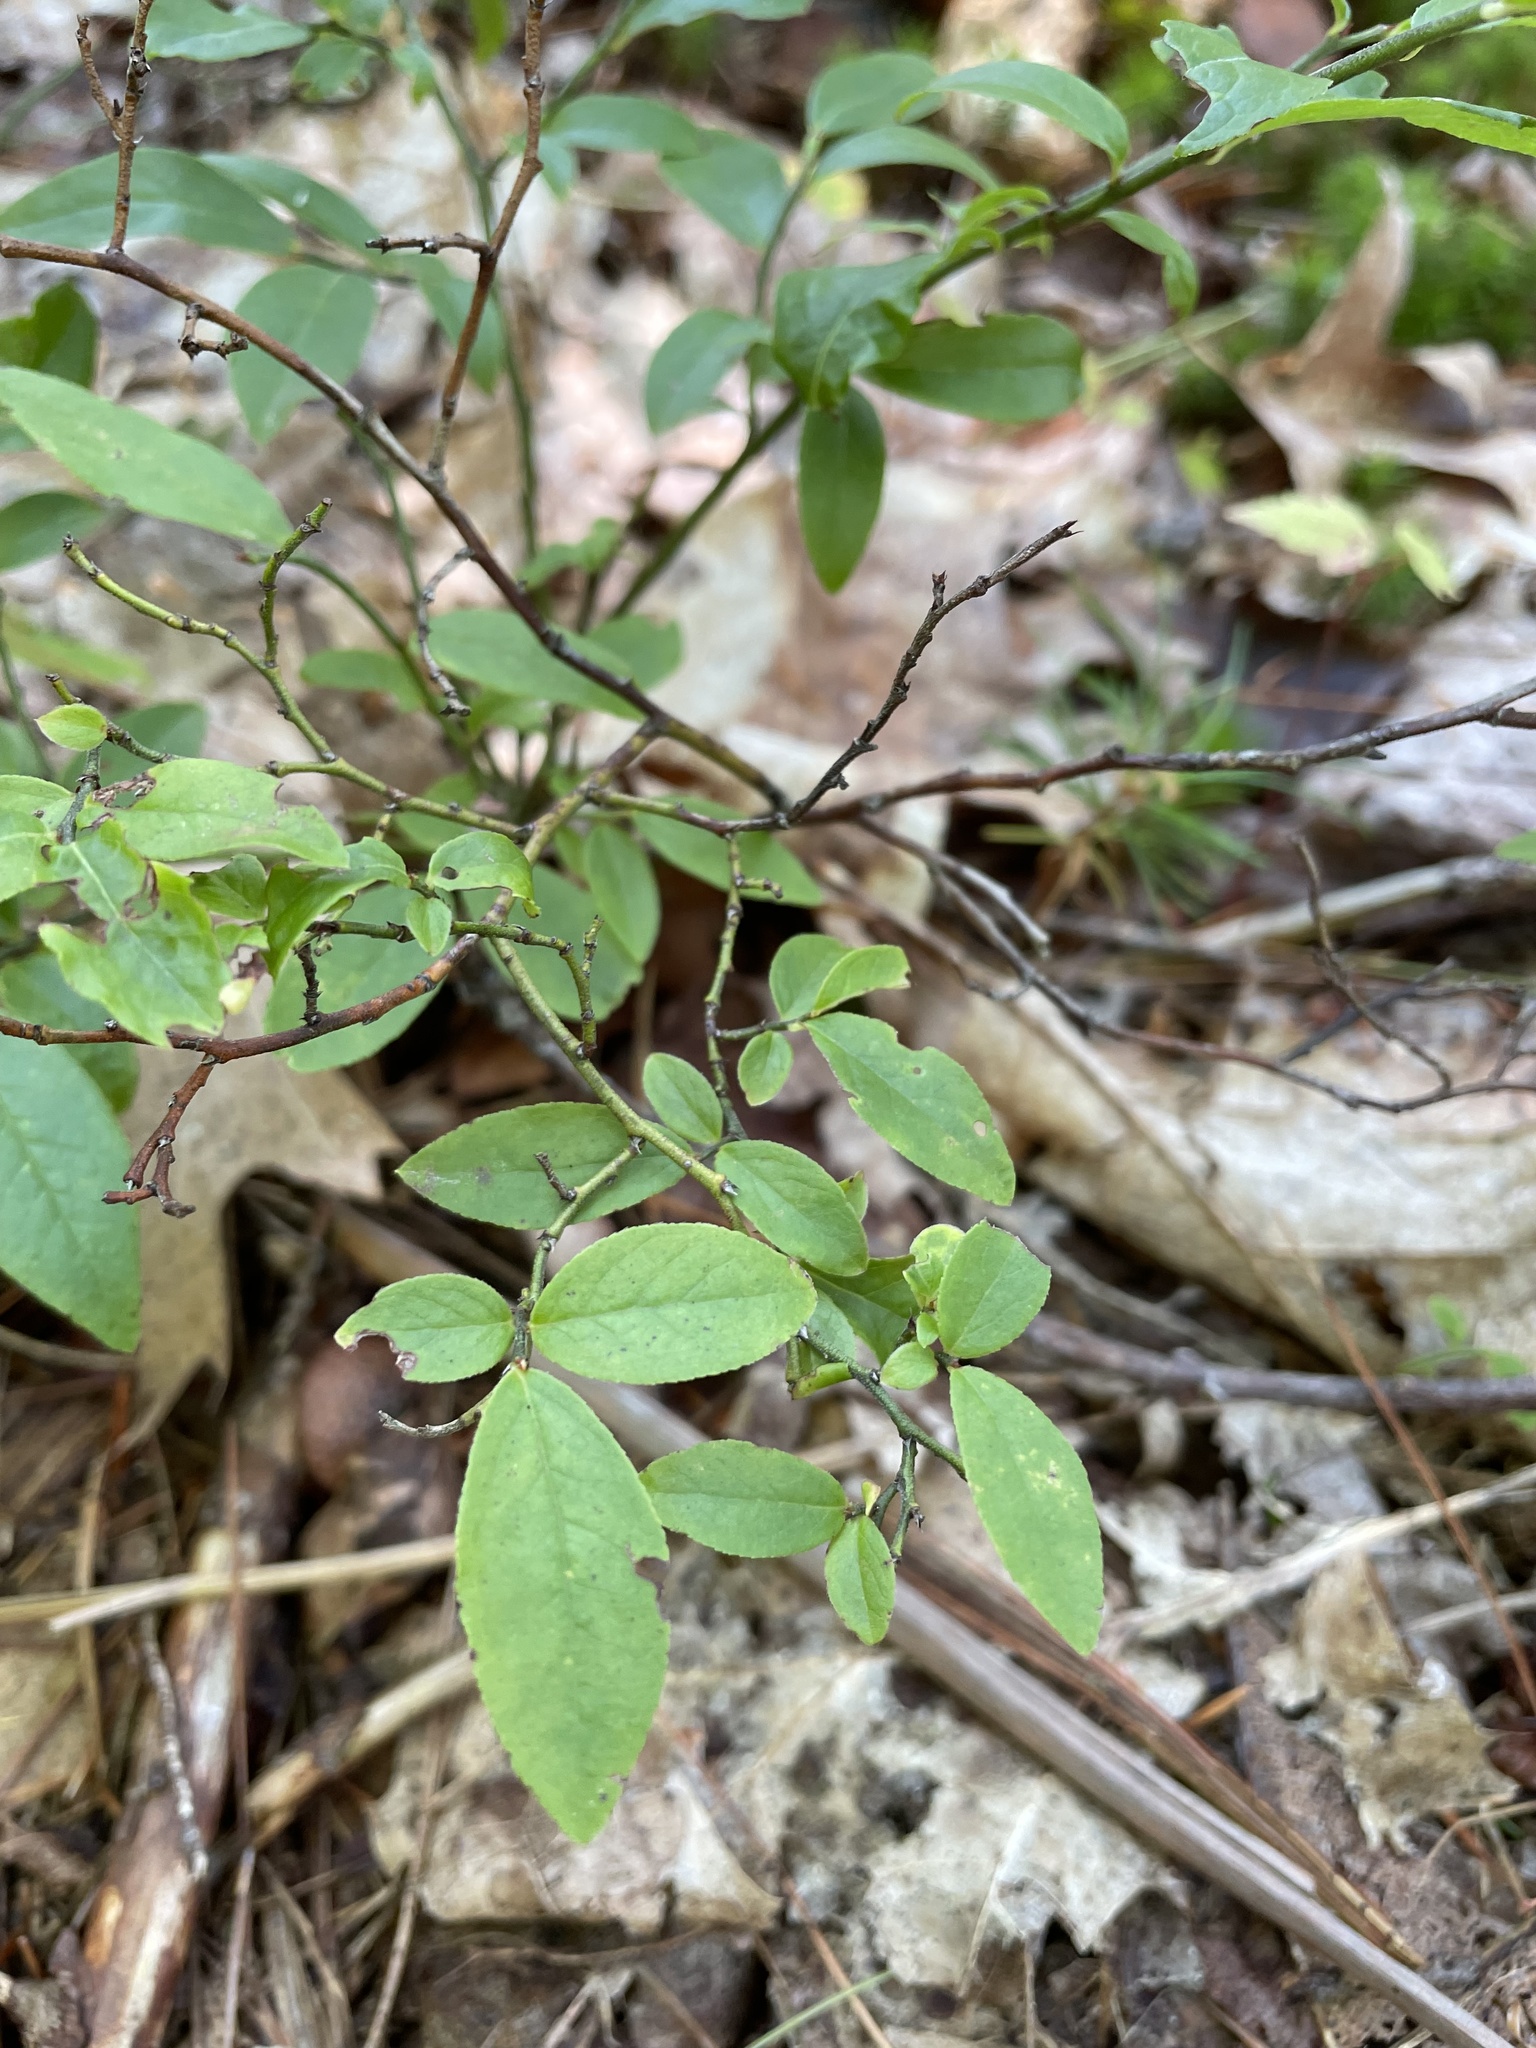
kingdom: Plantae
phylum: Tracheophyta
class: Magnoliopsida
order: Ericales
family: Ericaceae
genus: Vaccinium
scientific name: Vaccinium angustifolium
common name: Early lowbush blueberry
